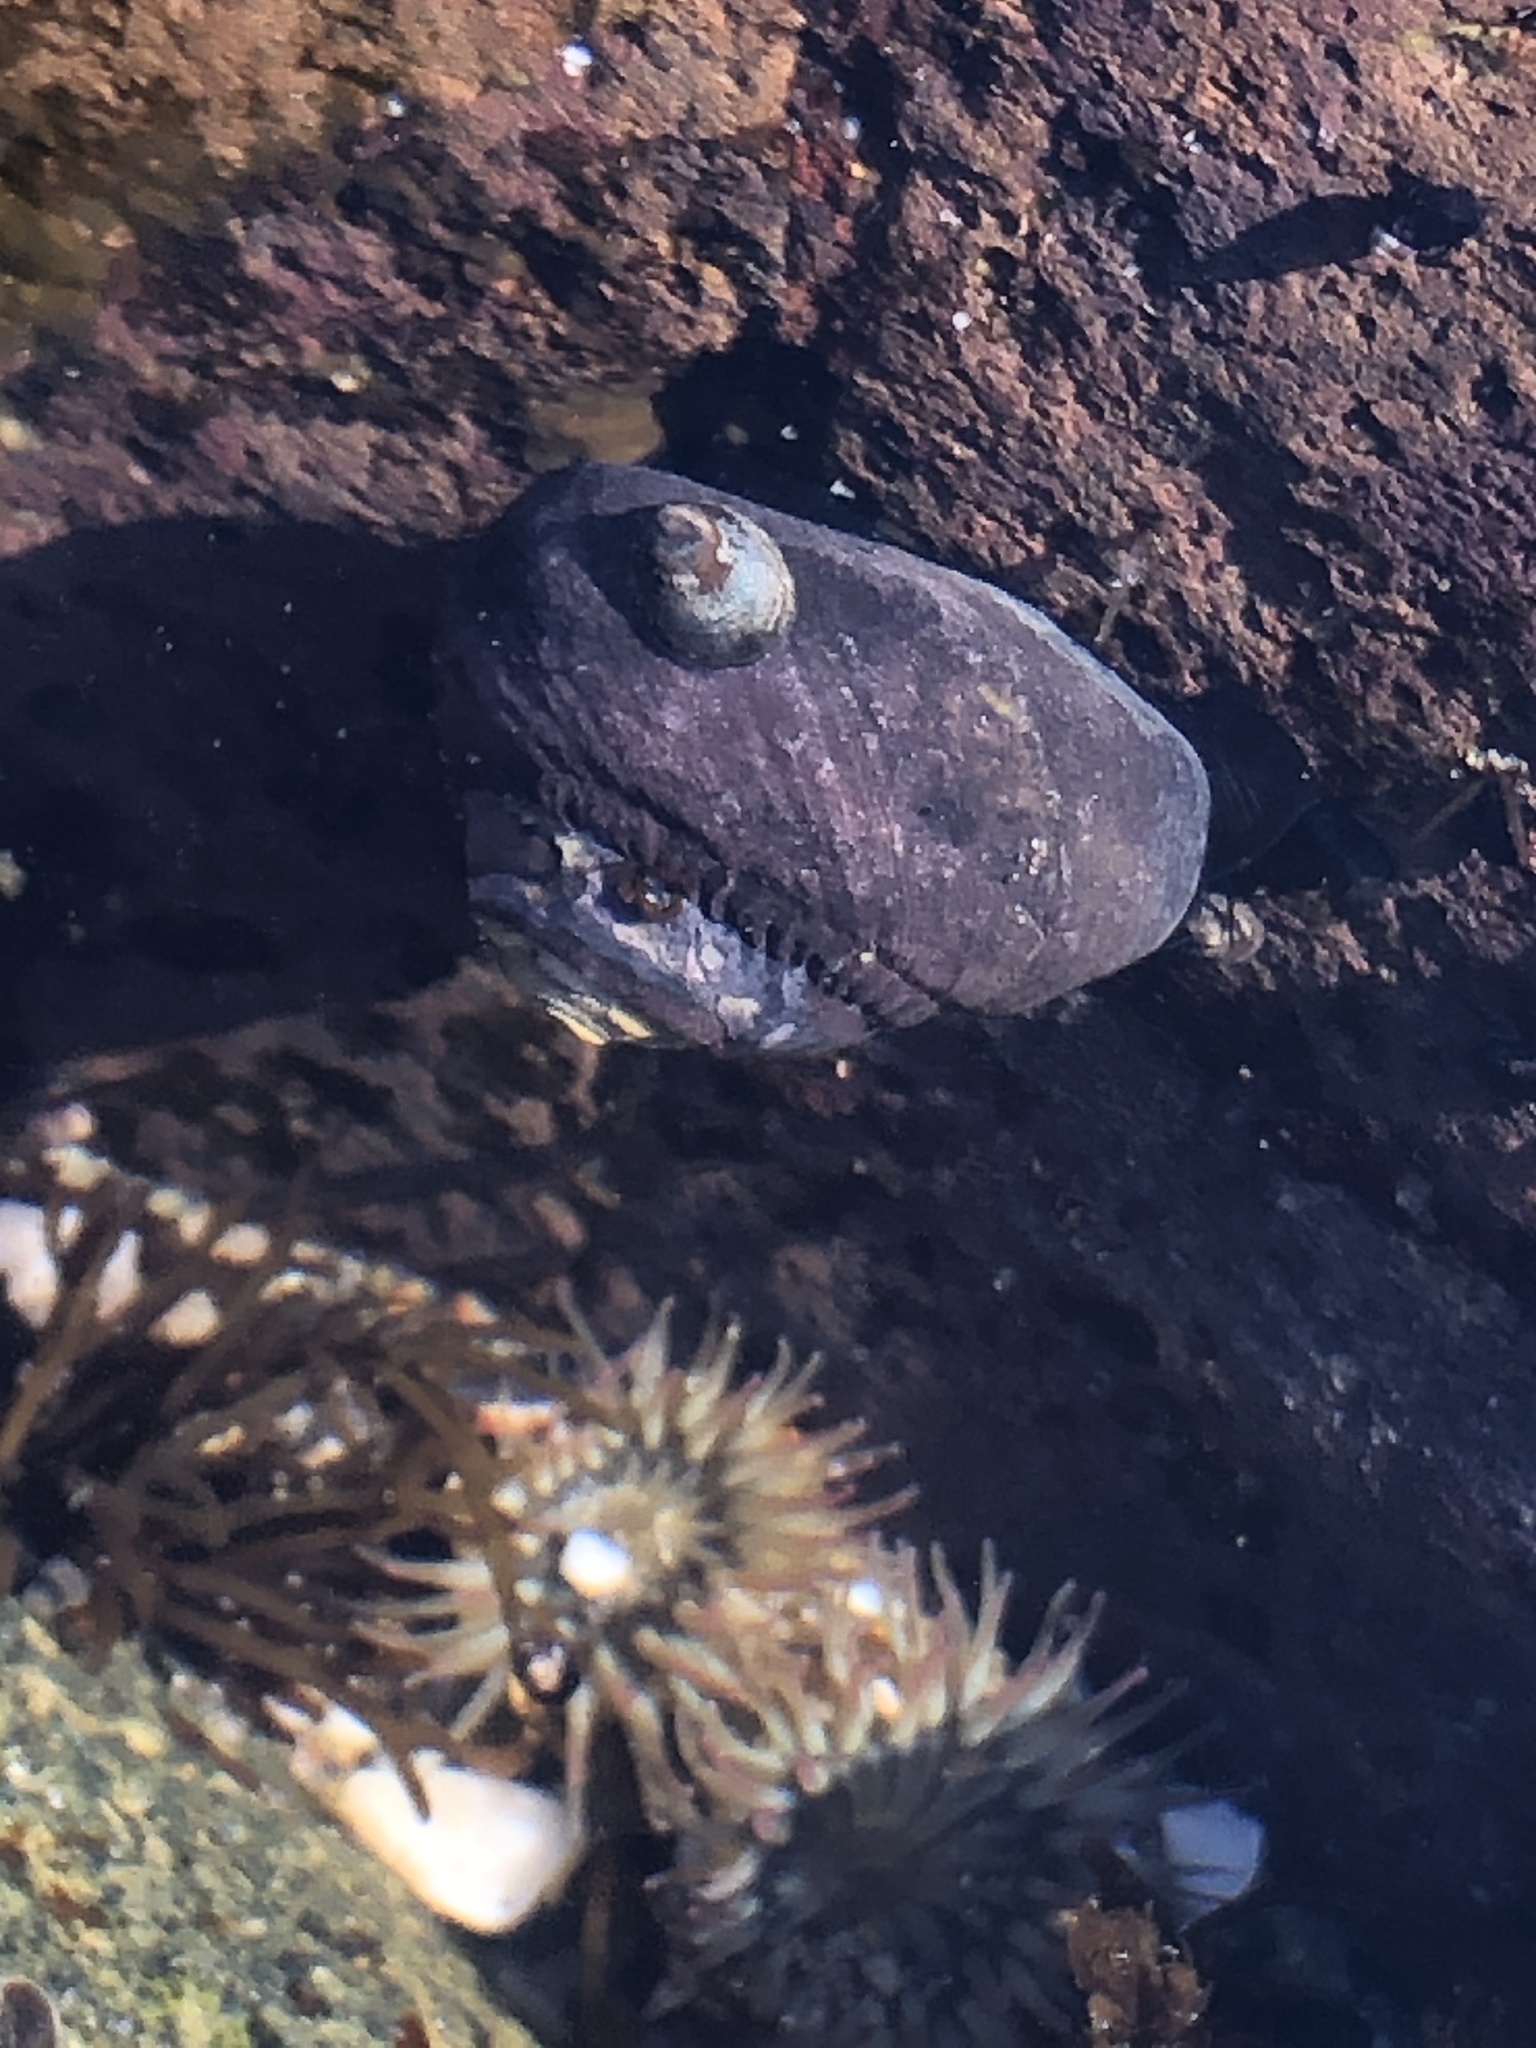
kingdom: Animalia
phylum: Mollusca
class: Gastropoda
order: Trochida
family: Tegulidae
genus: Tegula
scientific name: Tegula funebralis
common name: Black tegula
